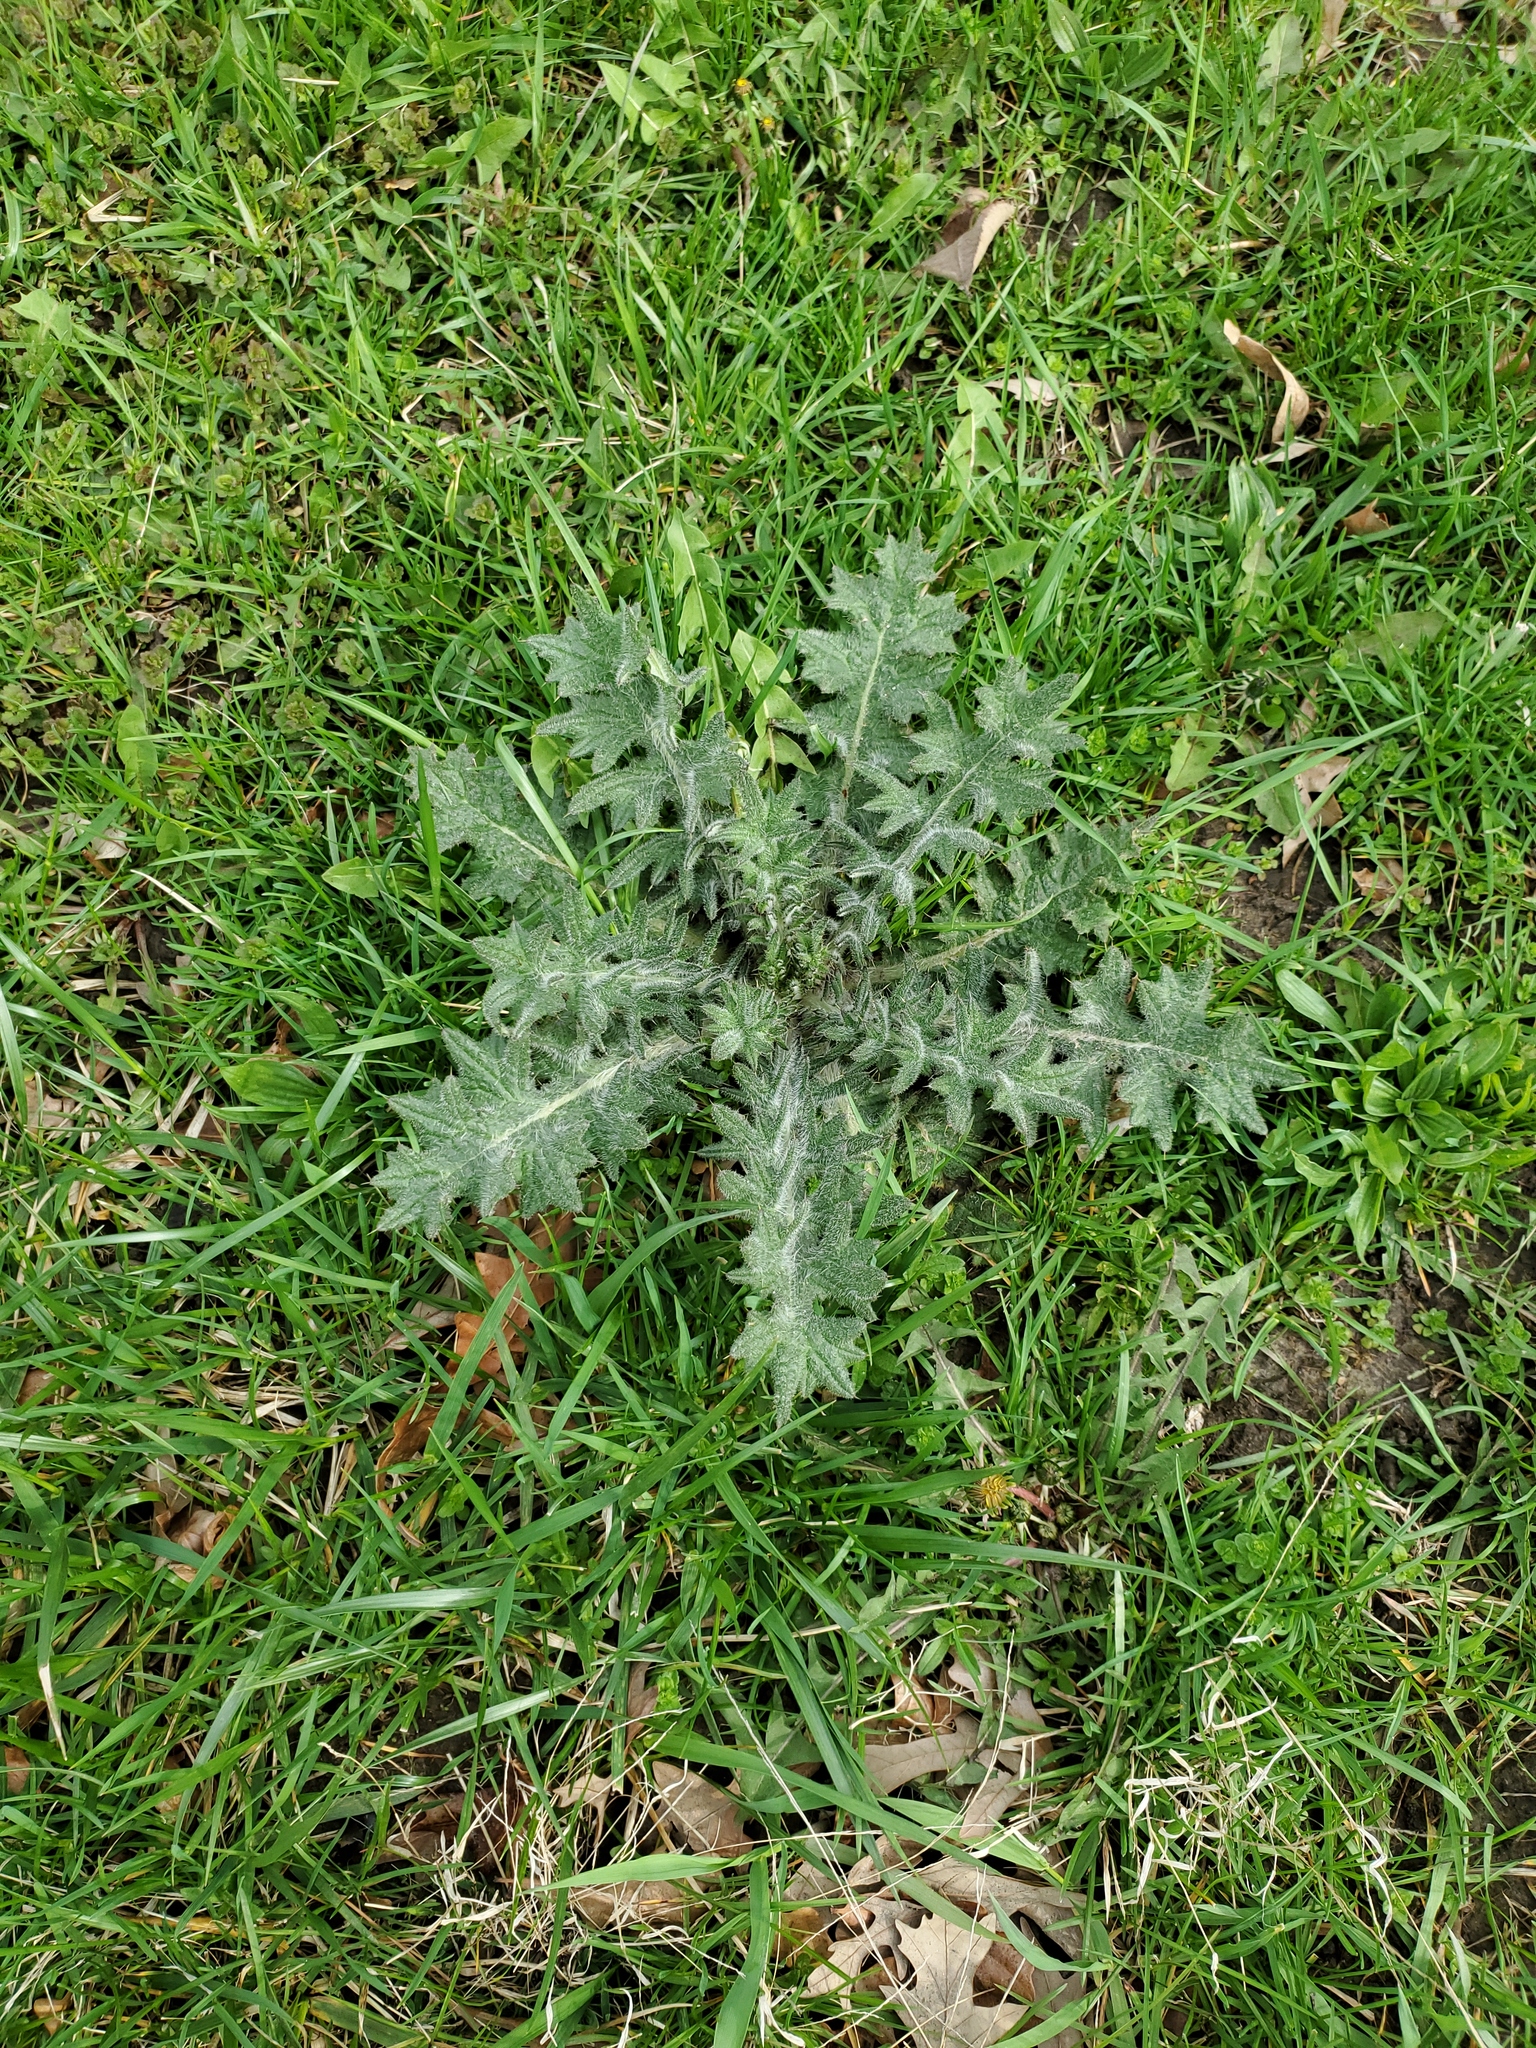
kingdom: Plantae
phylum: Tracheophyta
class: Magnoliopsida
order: Asterales
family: Asteraceae
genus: Cirsium
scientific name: Cirsium vulgare
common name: Bull thistle
